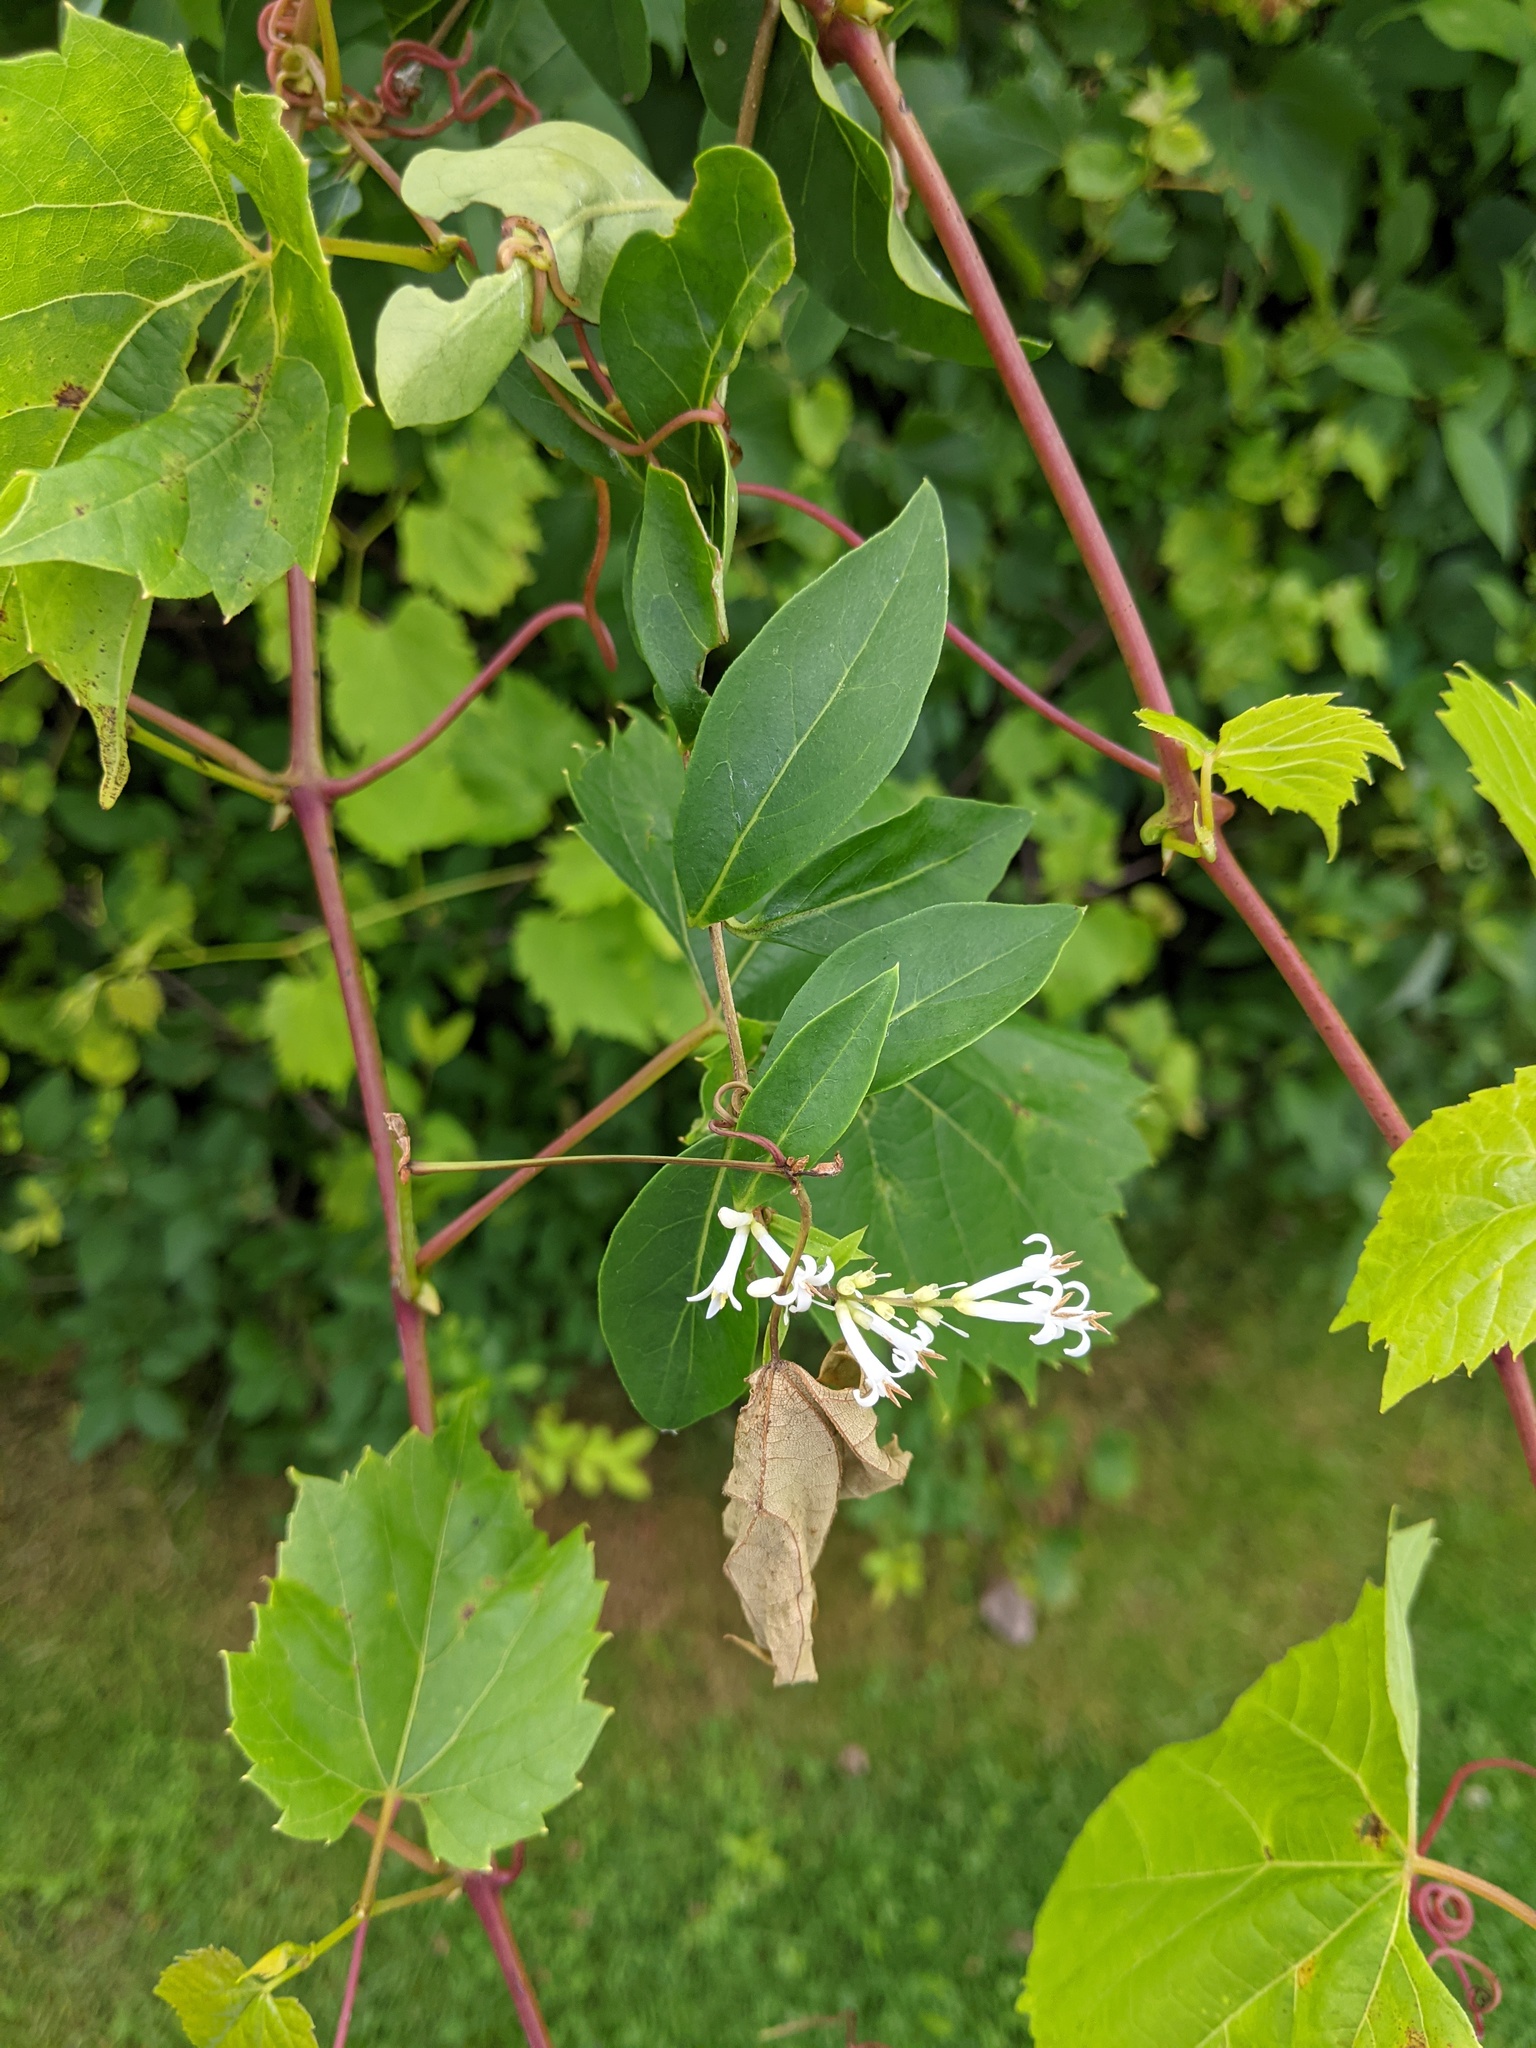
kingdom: Plantae
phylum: Tracheophyta
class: Magnoliopsida
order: Lamiales
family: Oleaceae
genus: Ligustrum
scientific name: Ligustrum obtusifolium
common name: Border privet
